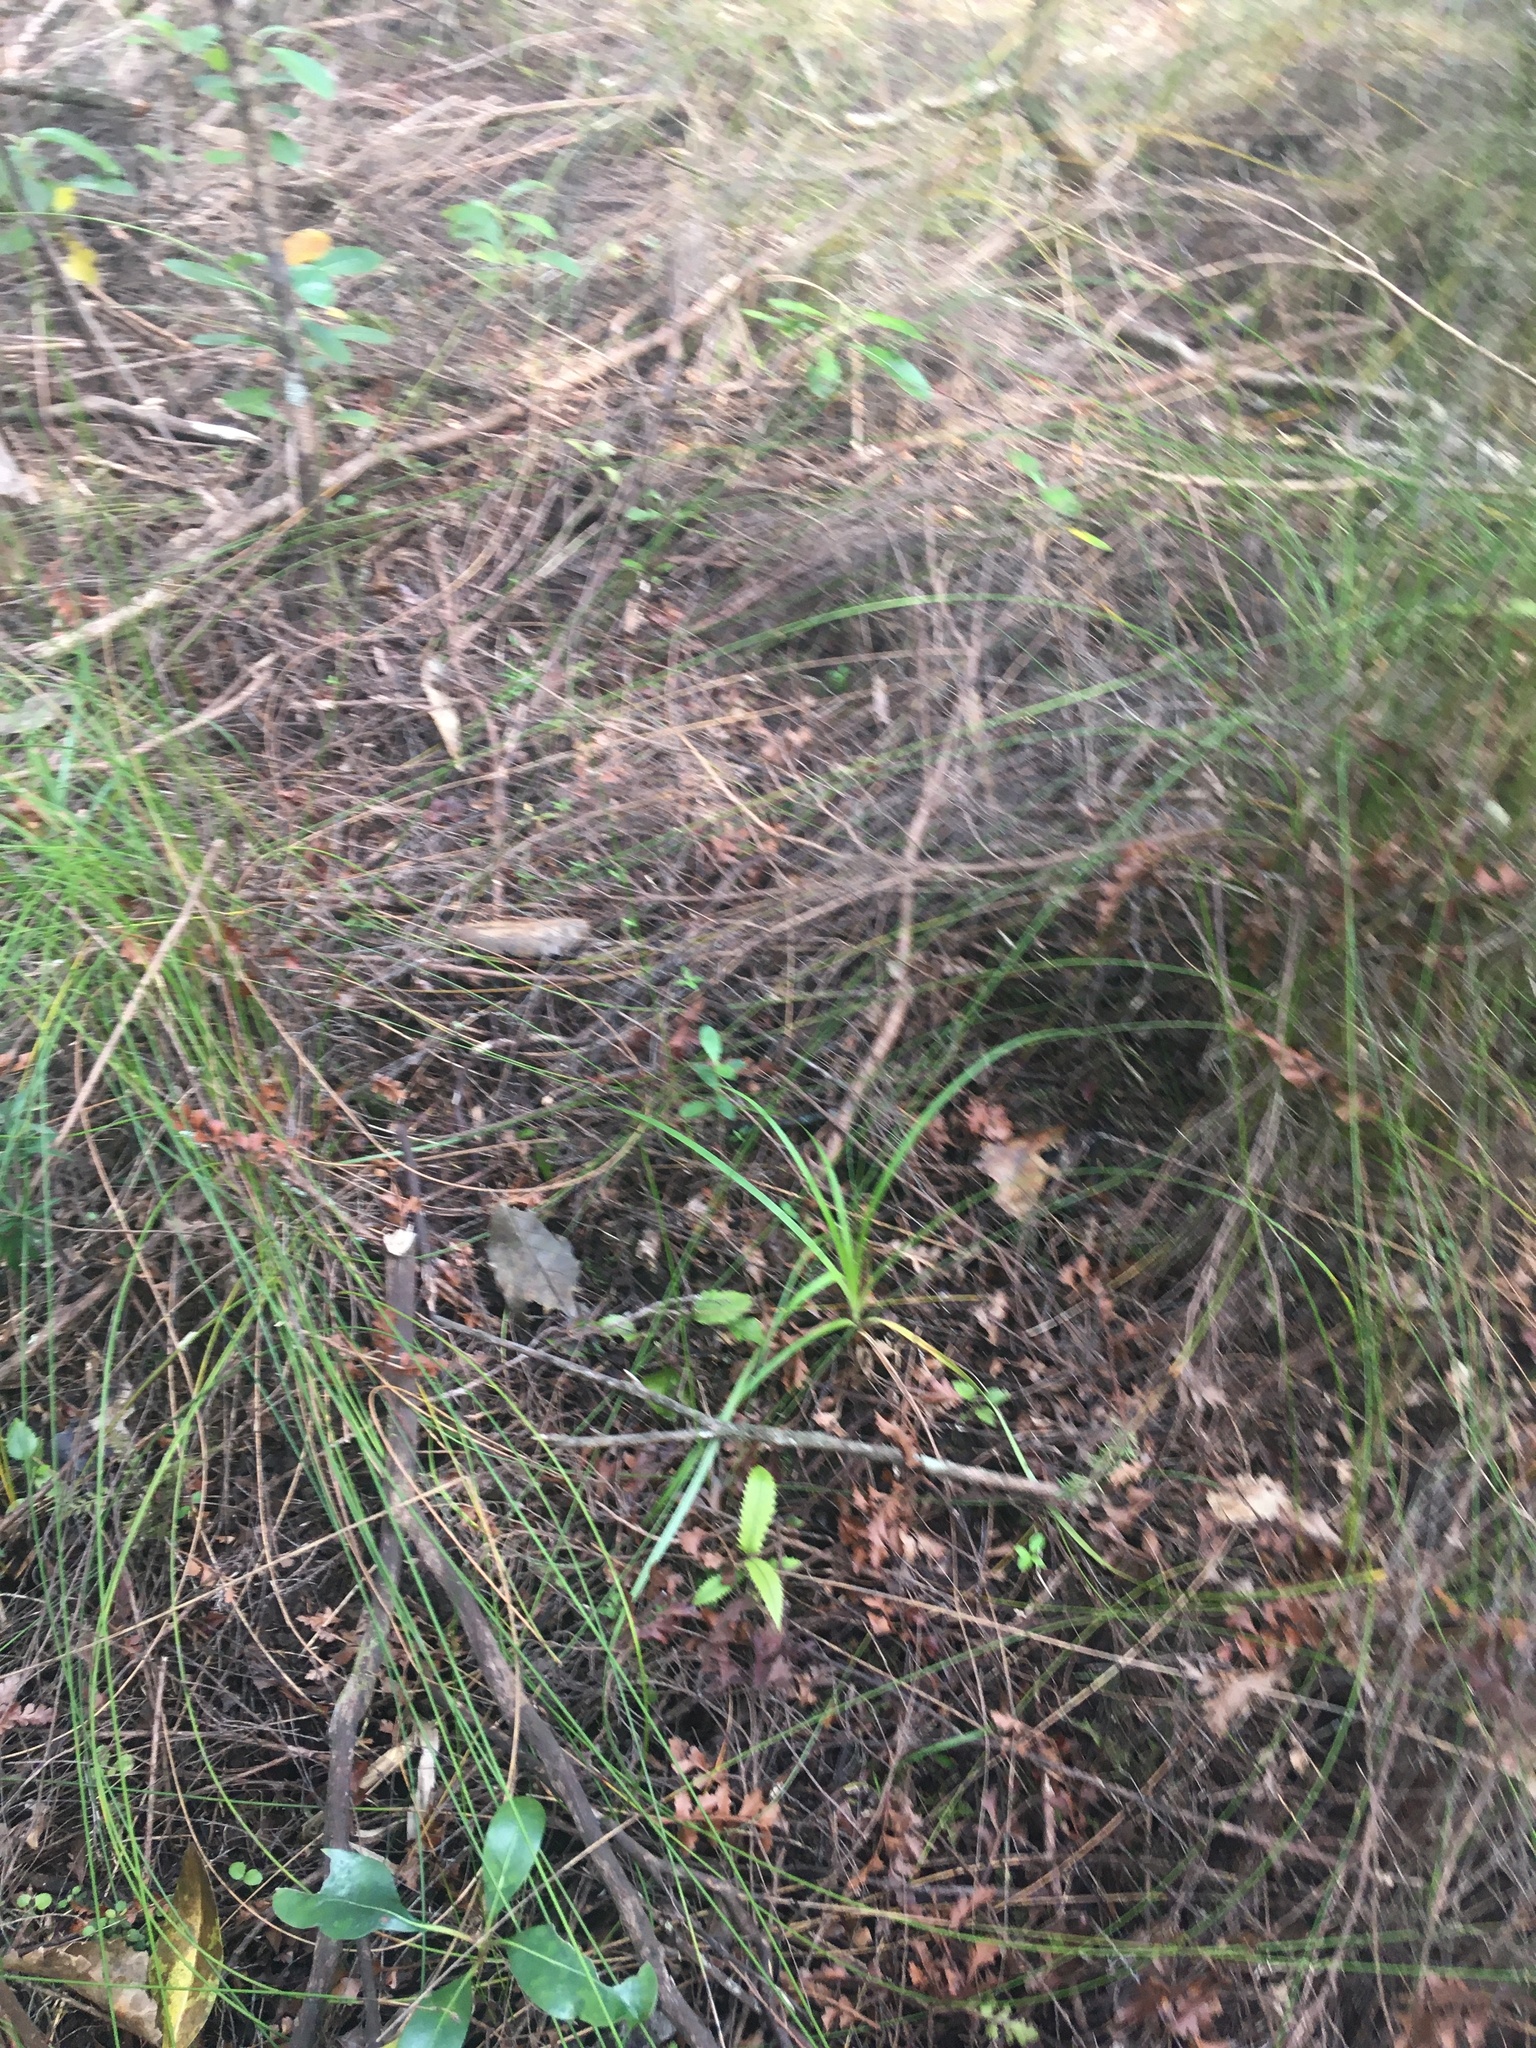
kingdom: Plantae
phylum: Tracheophyta
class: Magnoliopsida
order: Proteales
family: Proteaceae
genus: Knightia
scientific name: Knightia excelsa
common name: New zealand-honeysuckle
